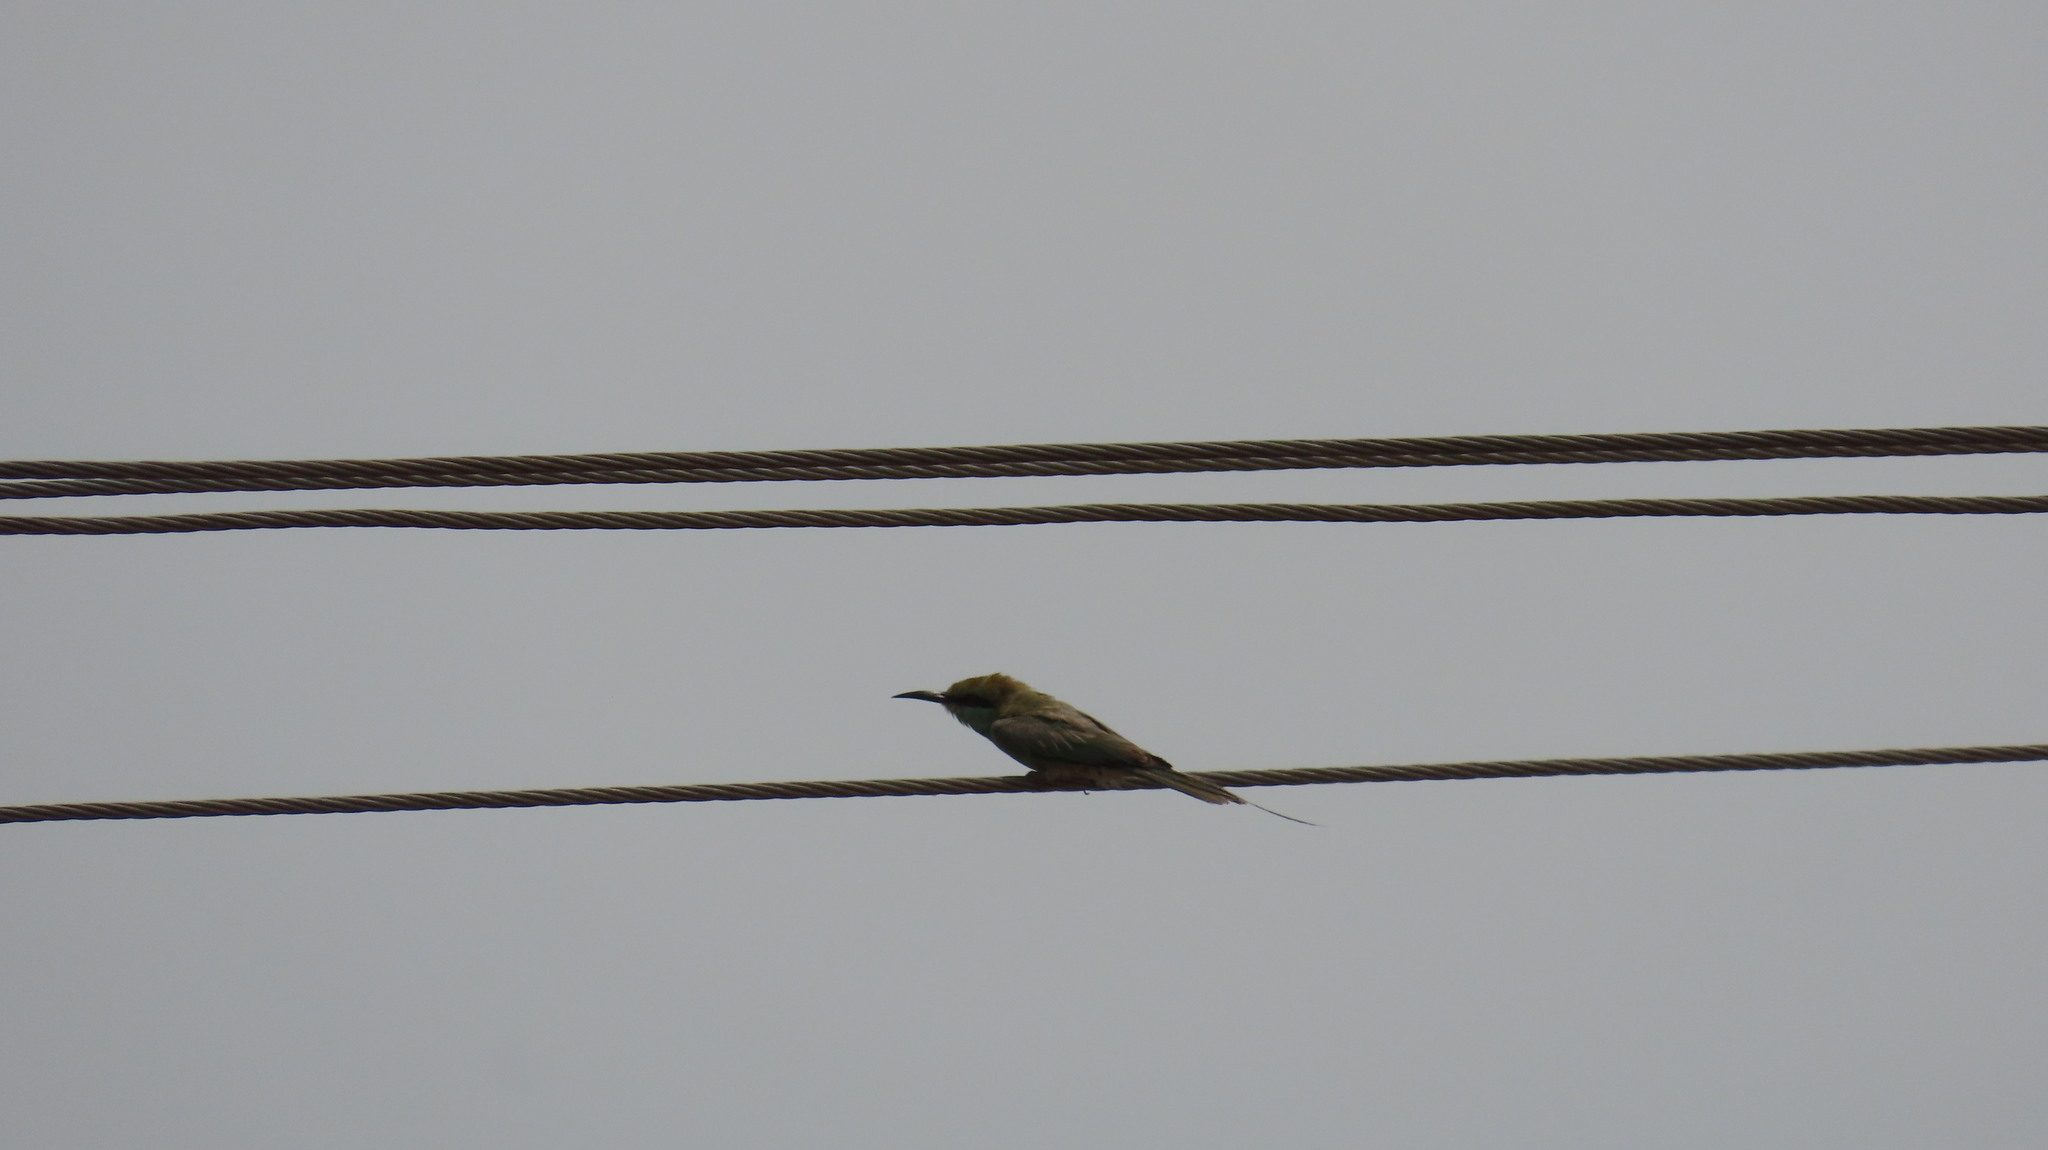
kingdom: Animalia
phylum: Chordata
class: Aves
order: Coraciiformes
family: Meropidae
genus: Merops
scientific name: Merops orientalis
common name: Green bee-eater
